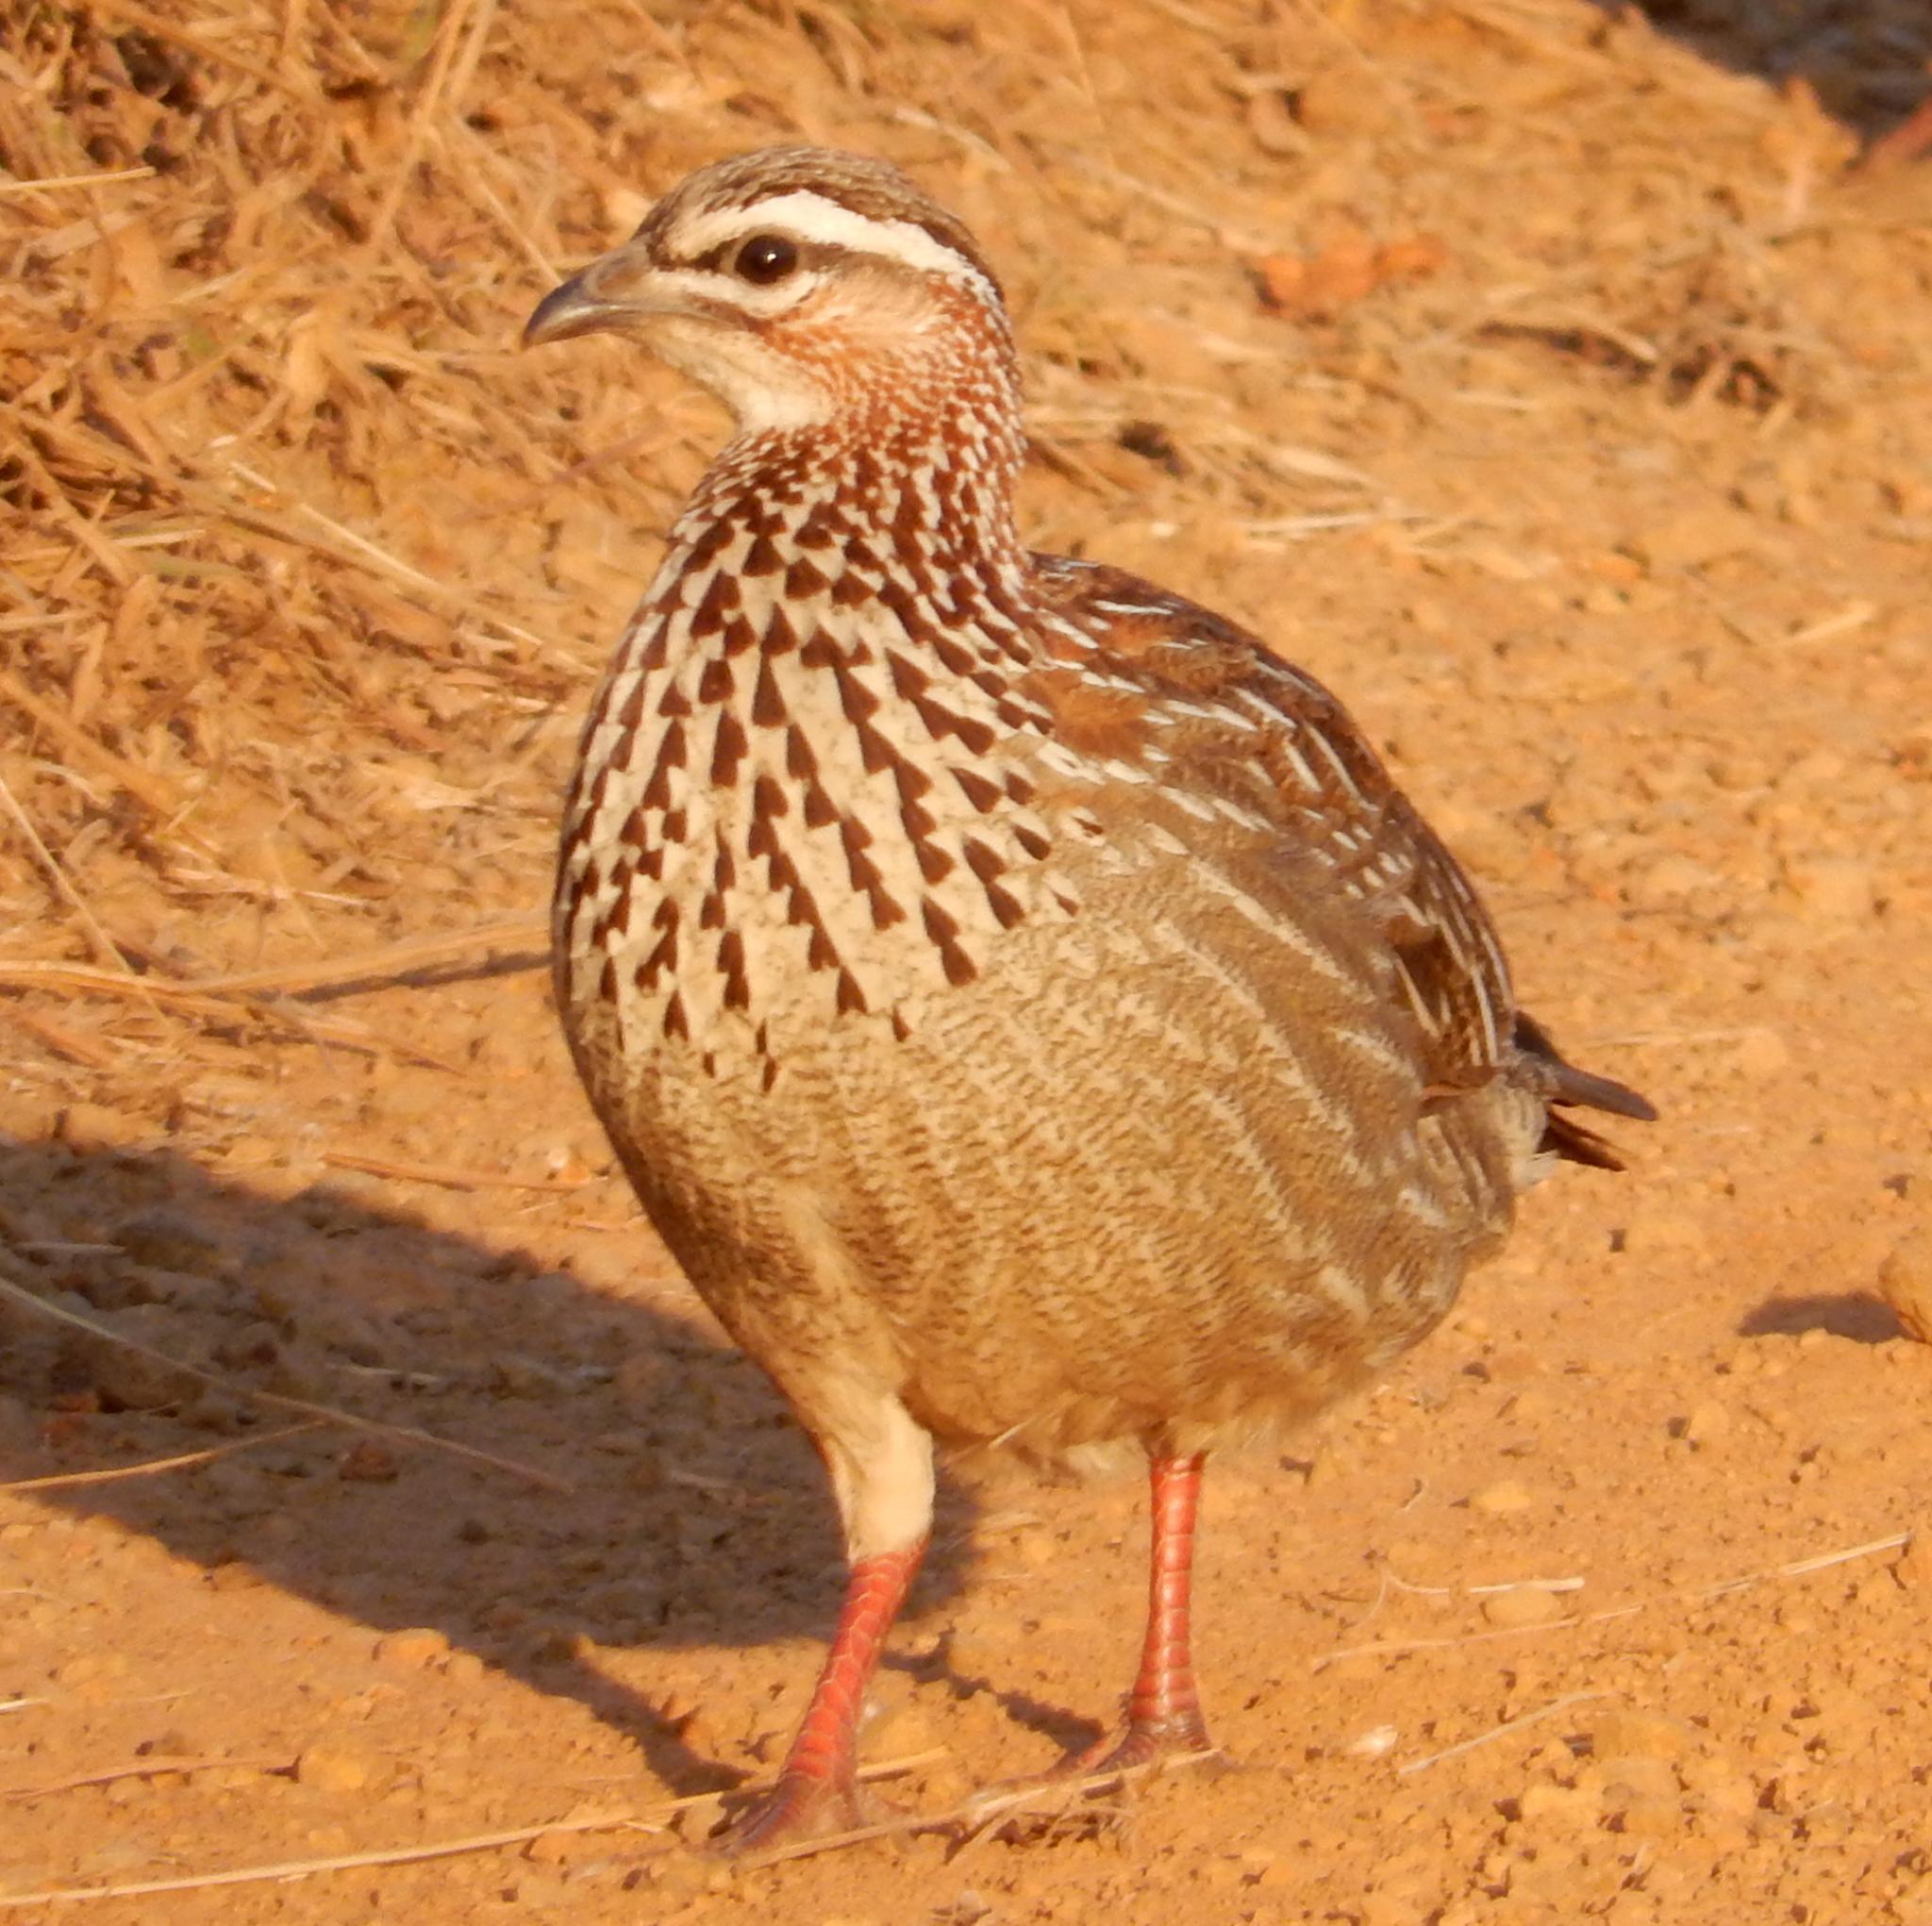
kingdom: Animalia
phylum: Chordata
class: Aves
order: Galliformes
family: Phasianidae
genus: Ortygornis
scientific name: Ortygornis sephaena
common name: Crested francolin
